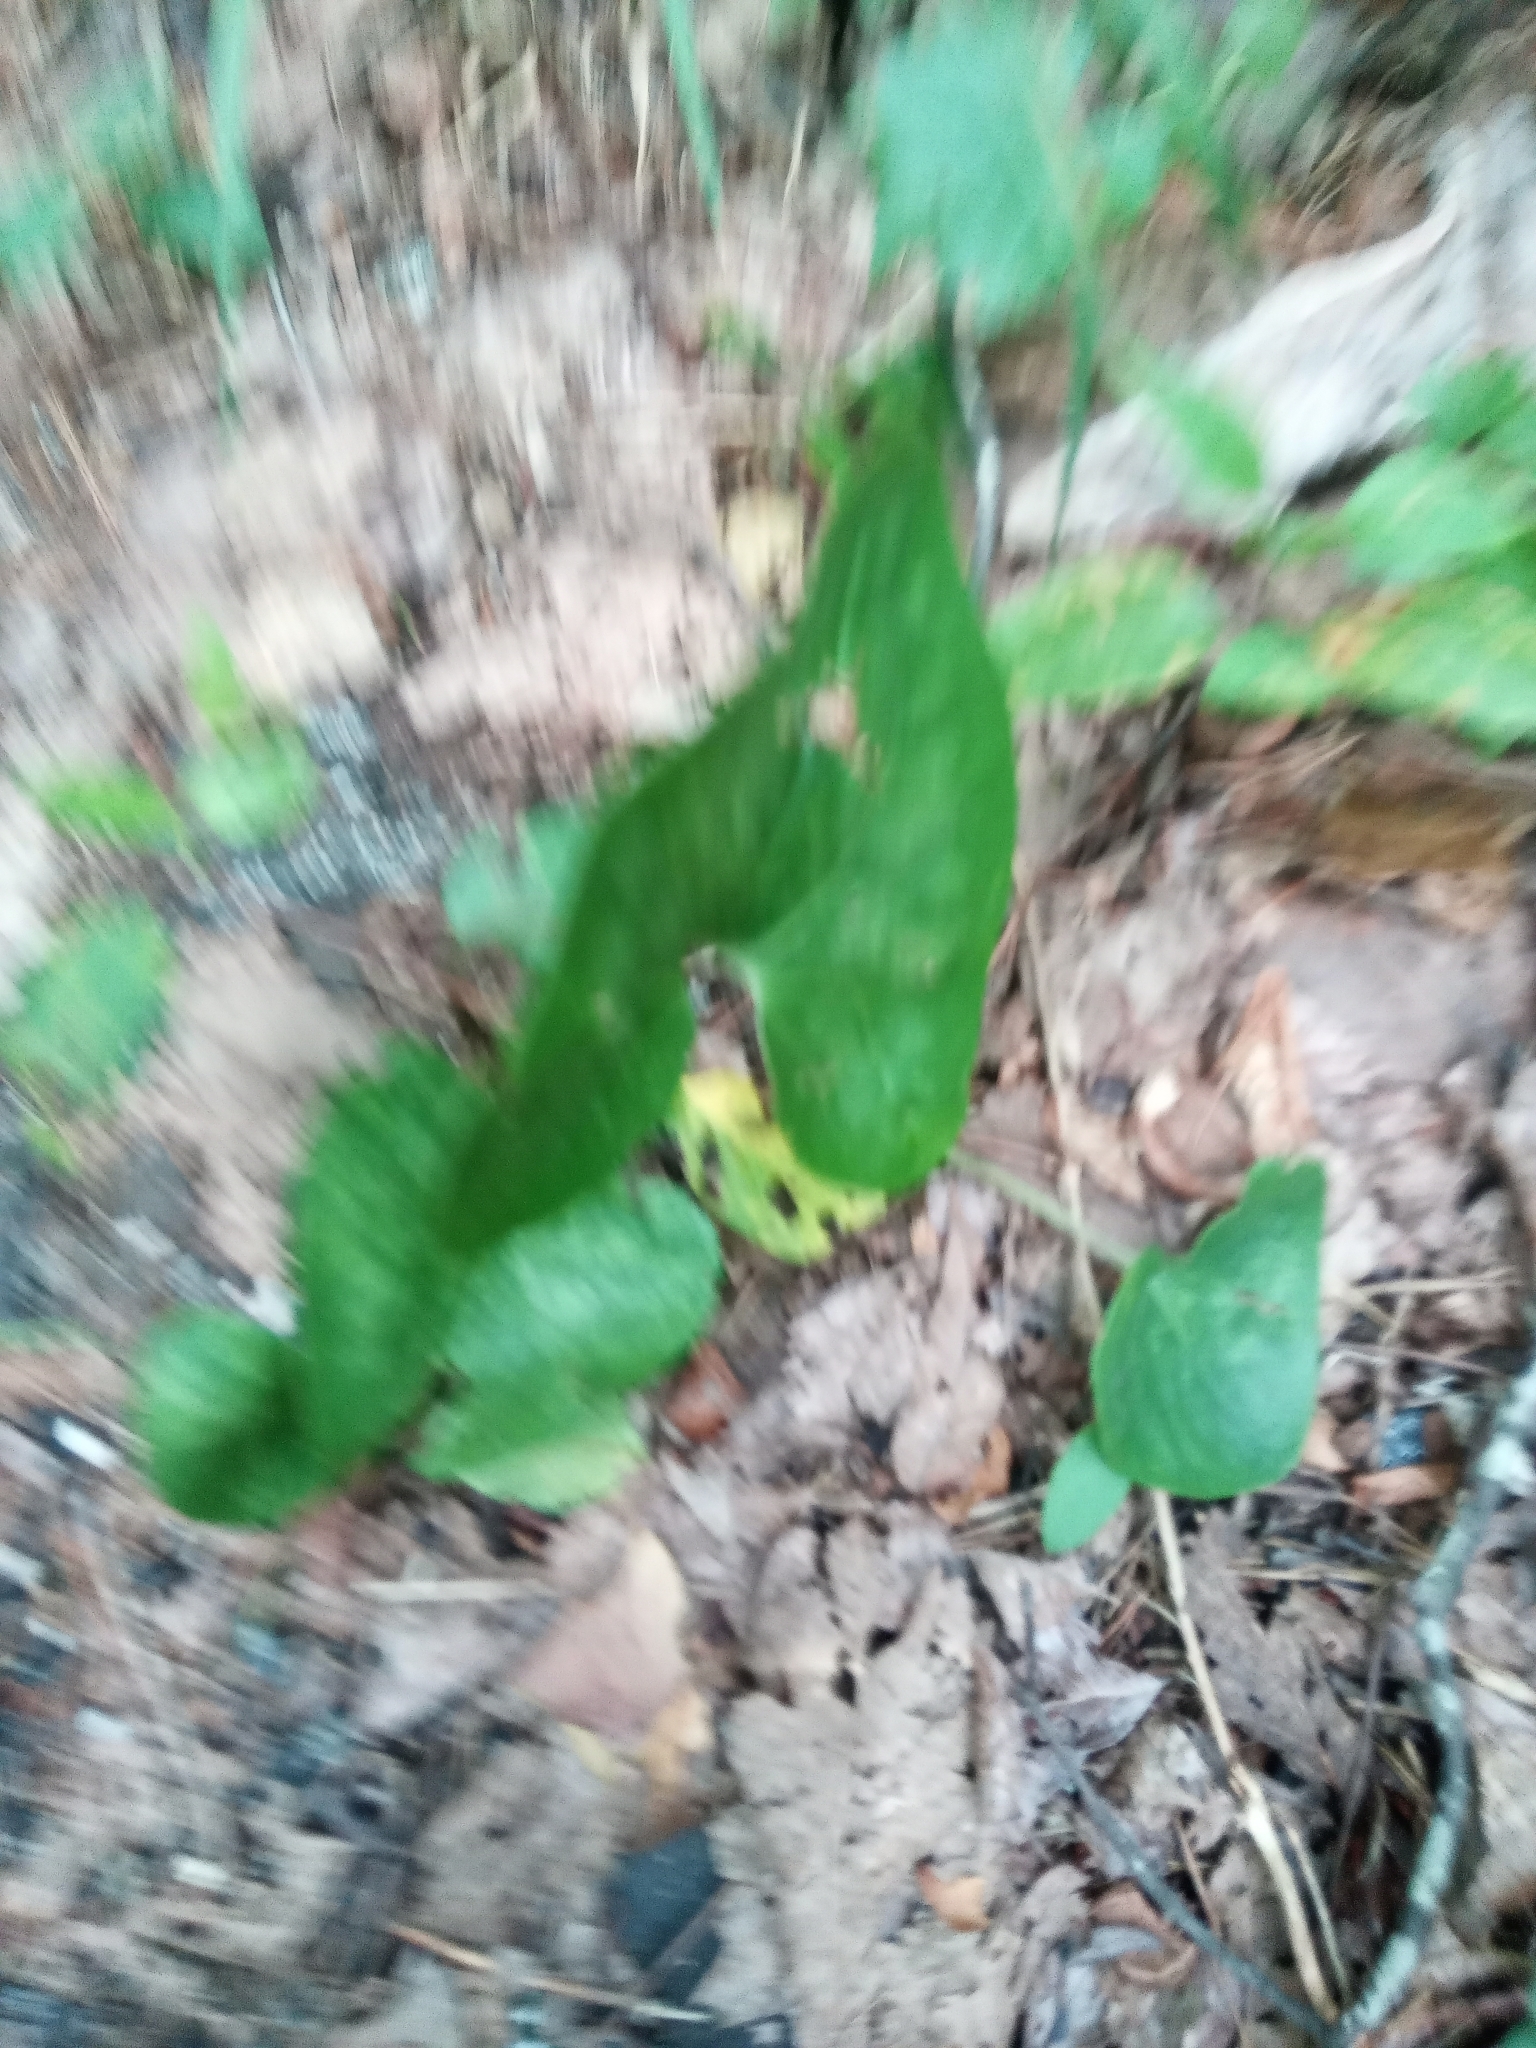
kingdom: Plantae
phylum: Tracheophyta
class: Magnoliopsida
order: Piperales
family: Aristolochiaceae
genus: Hexastylis
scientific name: Hexastylis arifolia
